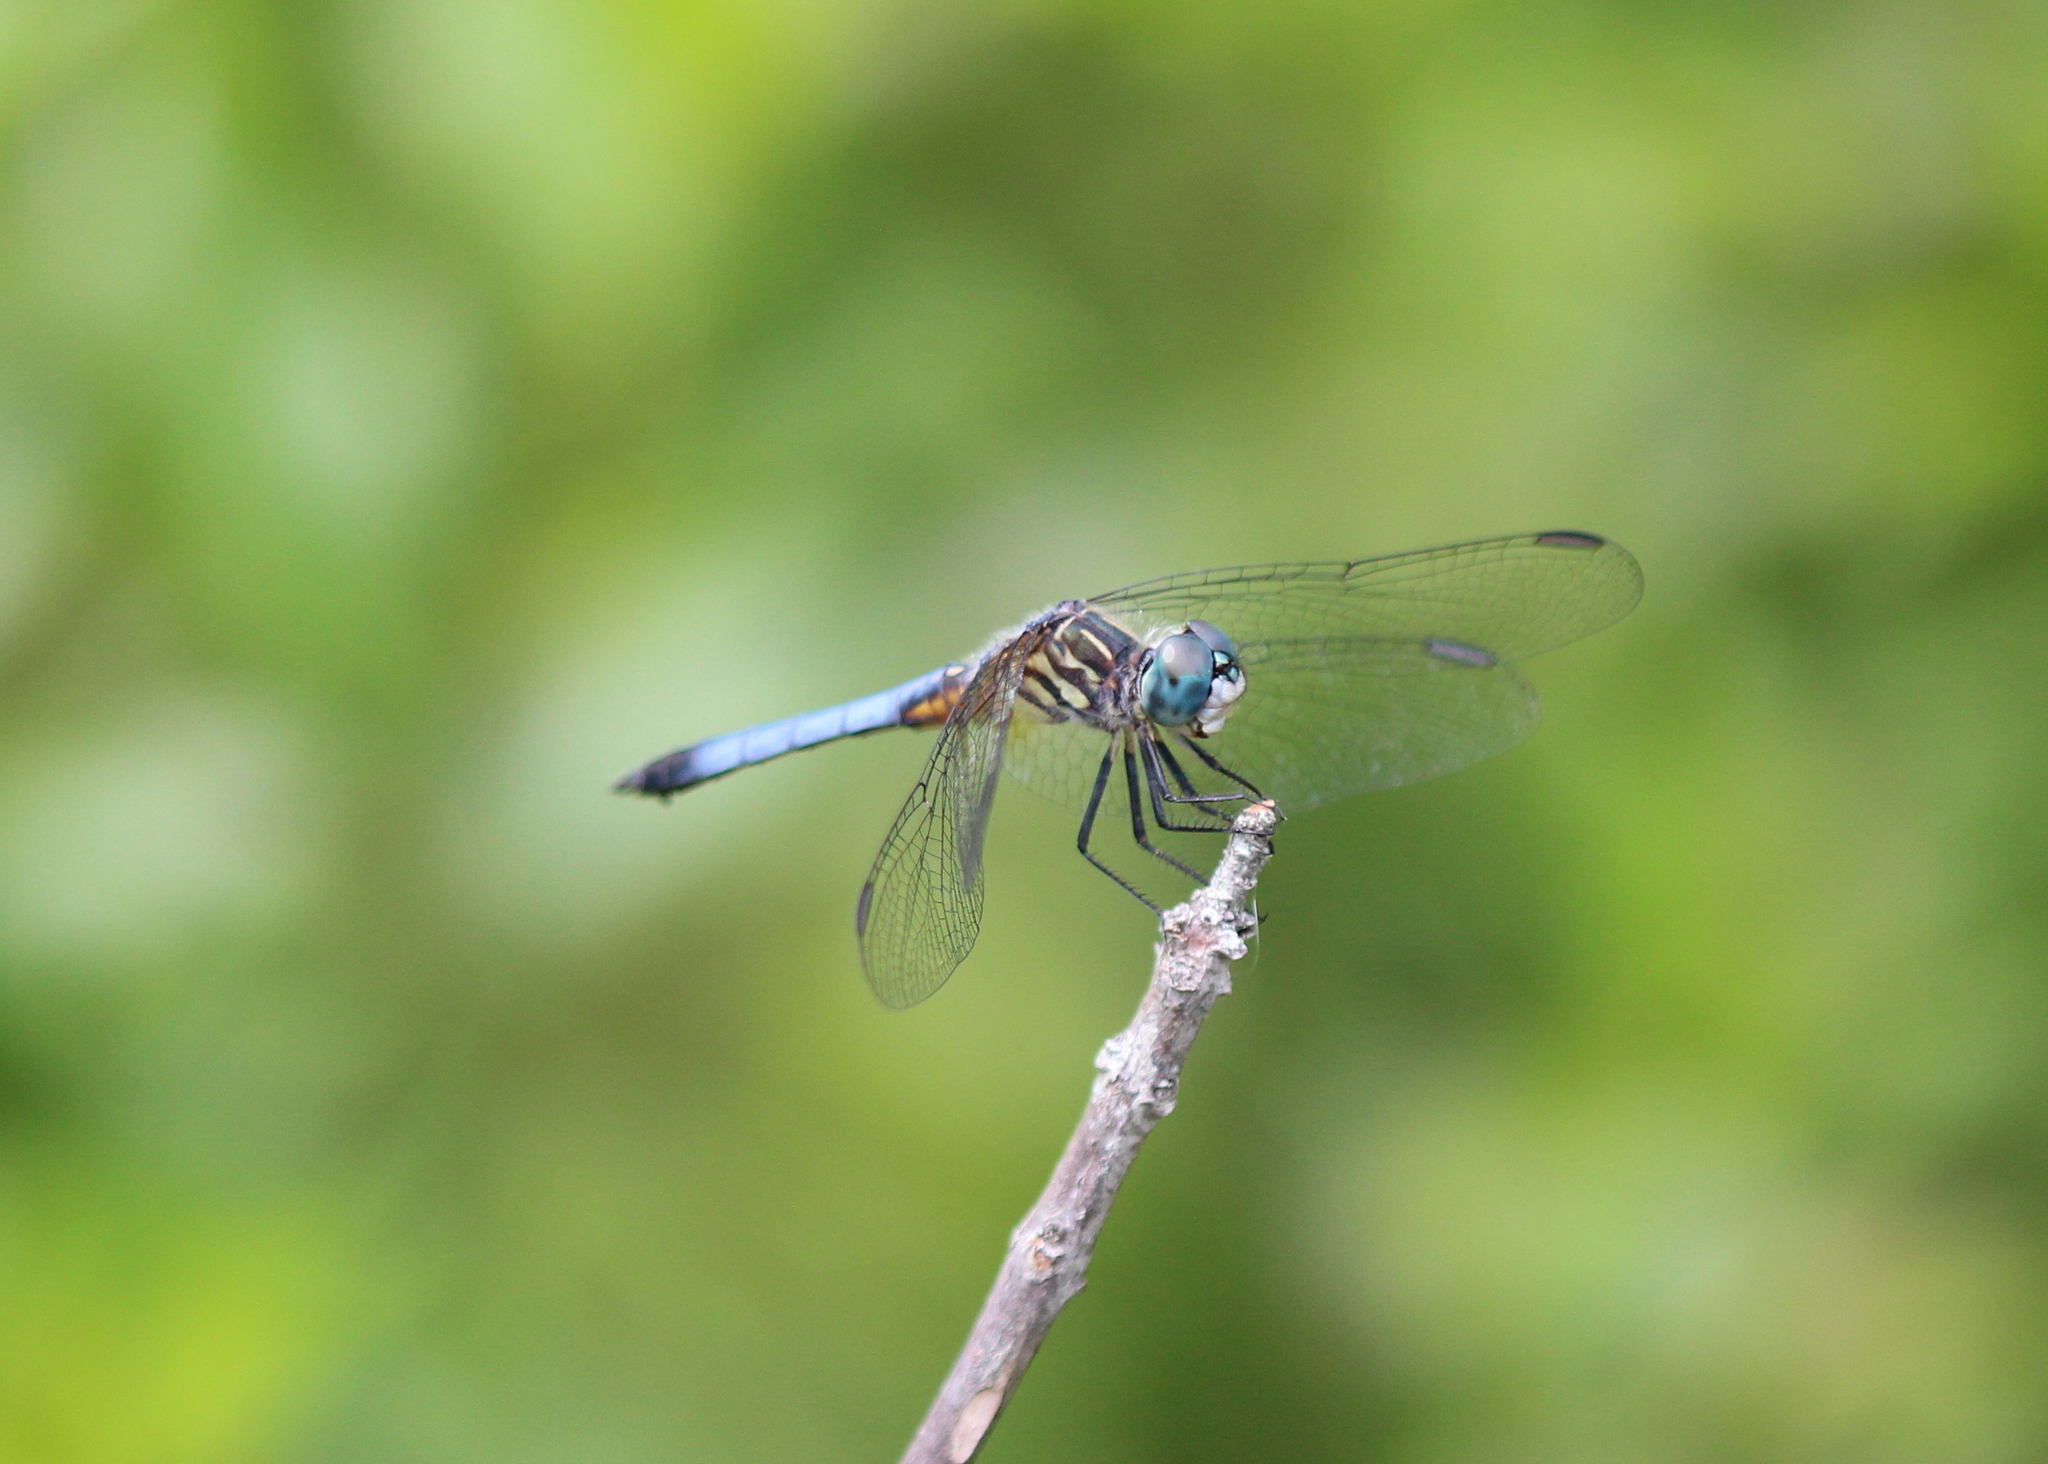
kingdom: Animalia
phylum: Arthropoda
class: Insecta
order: Odonata
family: Libellulidae
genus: Pachydiplax
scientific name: Pachydiplax longipennis
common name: Blue dasher
